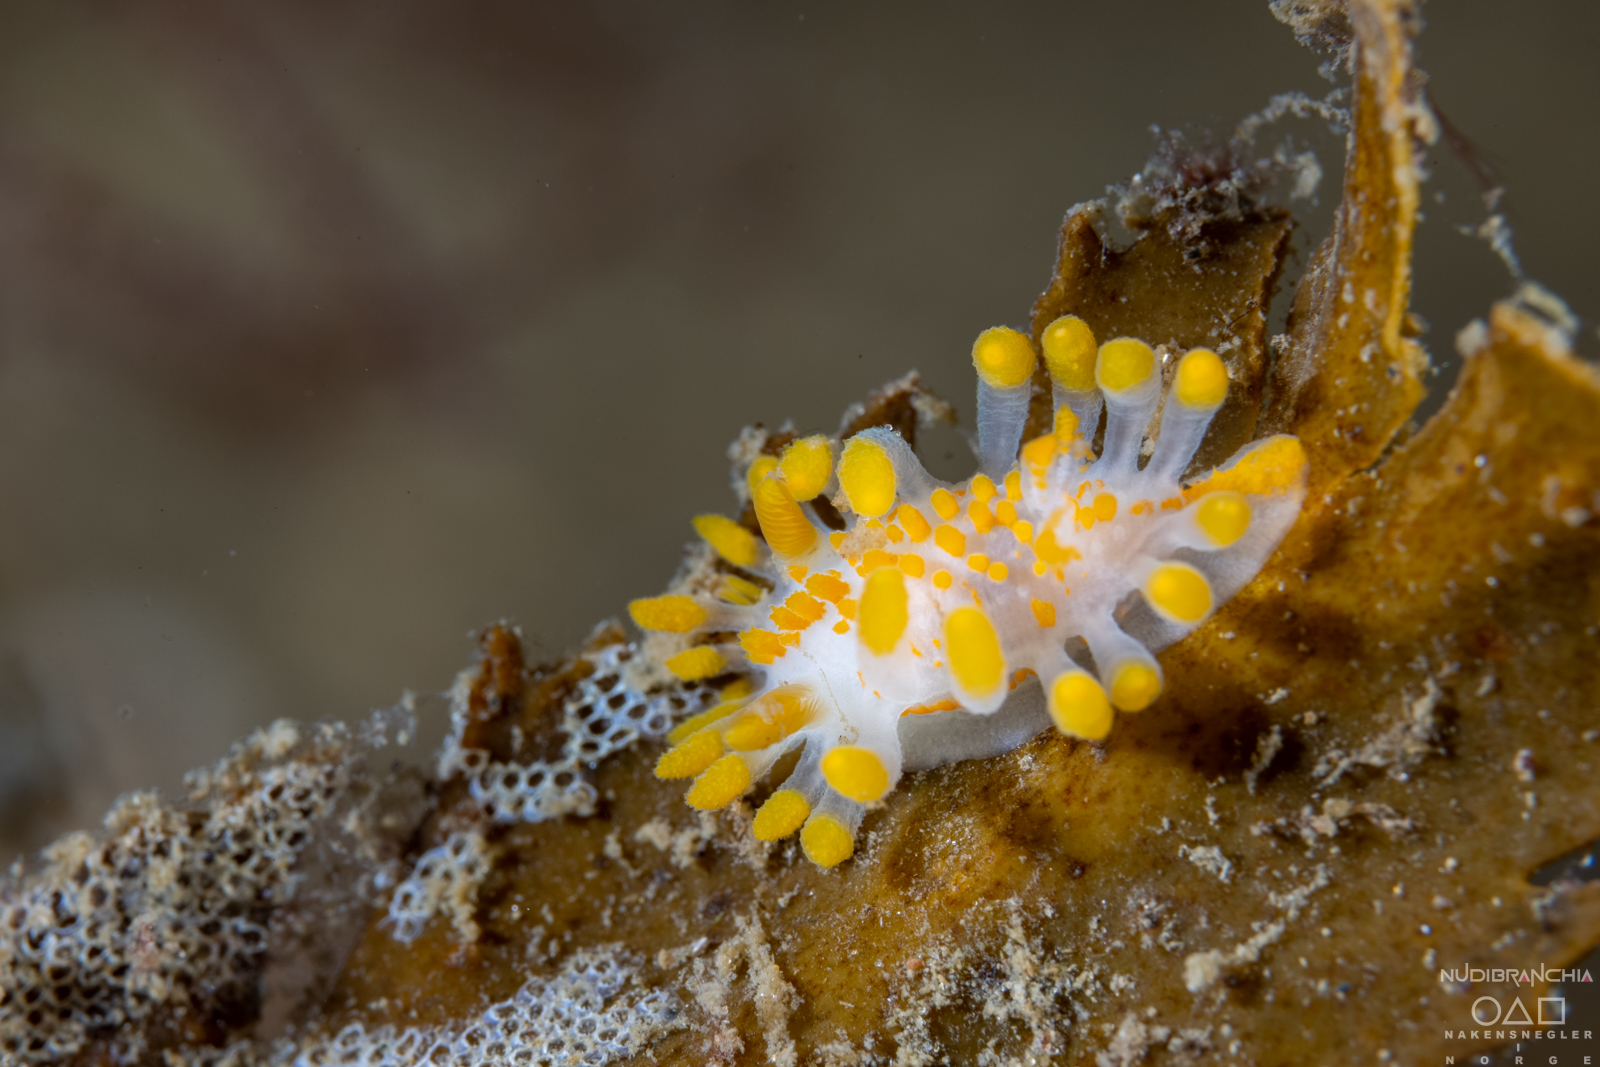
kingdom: Animalia
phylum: Mollusca
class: Gastropoda
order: Nudibranchia
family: Polyceridae
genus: Limacia
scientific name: Limacia clavigera
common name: Orange-clubbed sea slug
